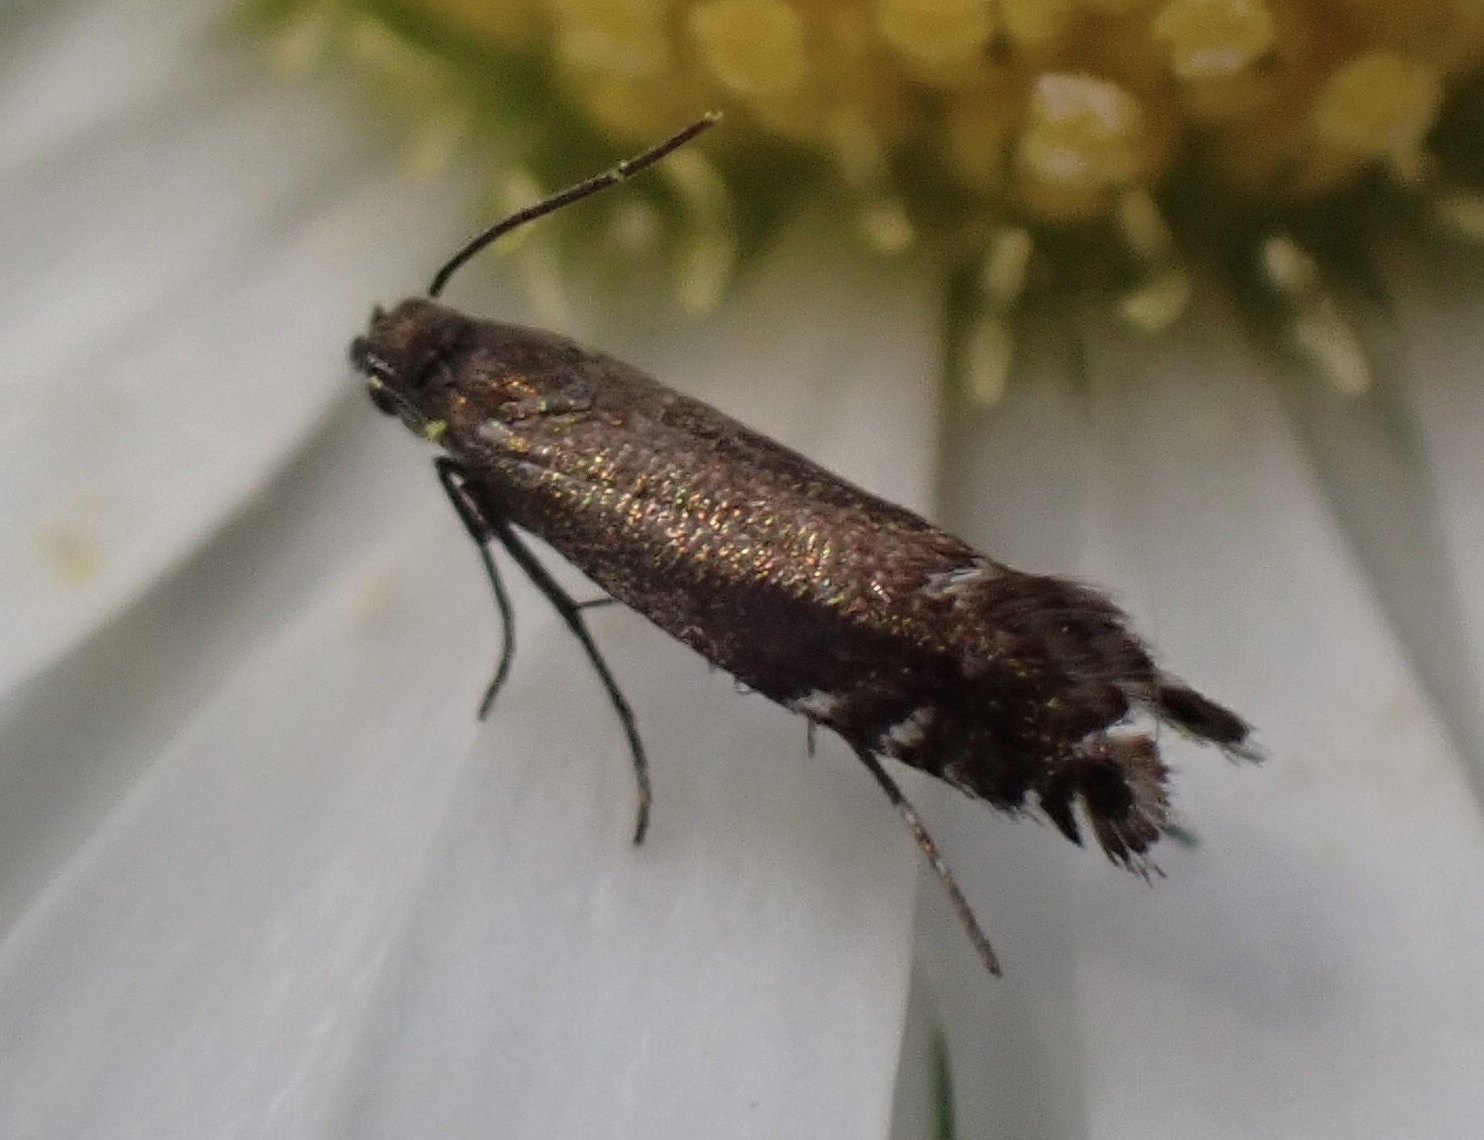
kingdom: Animalia
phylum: Arthropoda
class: Insecta
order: Lepidoptera
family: Glyphipterigidae
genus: Glyphipterix
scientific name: Glyphipterix simpliciella
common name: Cocksfoot moth
